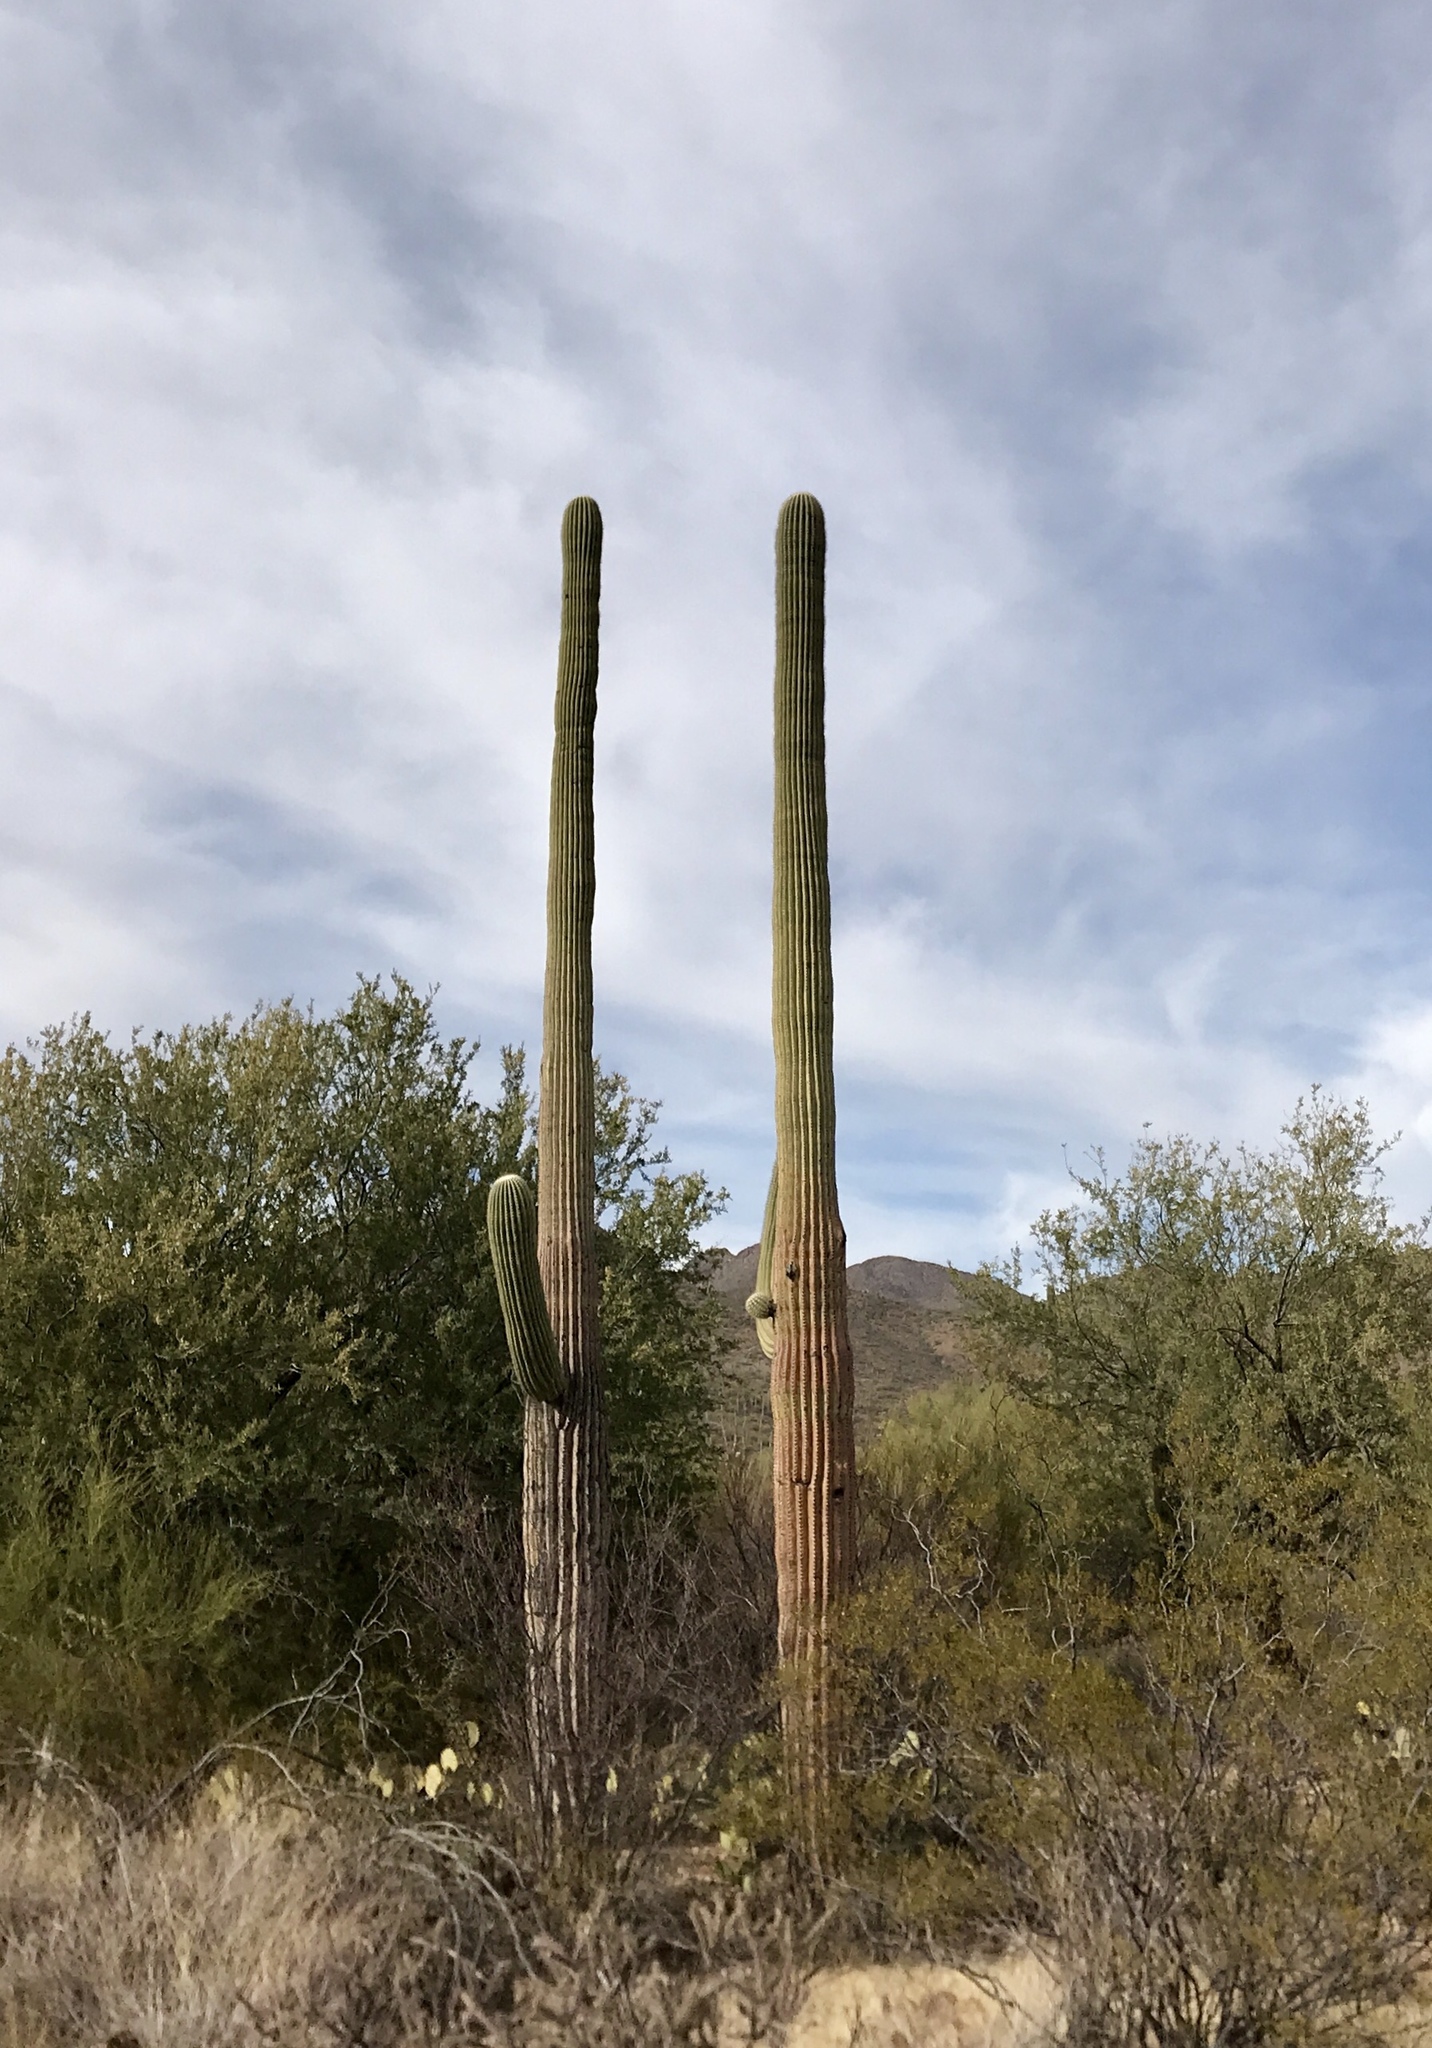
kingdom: Plantae
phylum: Tracheophyta
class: Magnoliopsida
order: Caryophyllales
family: Cactaceae
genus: Carnegiea
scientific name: Carnegiea gigantea
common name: Saguaro
